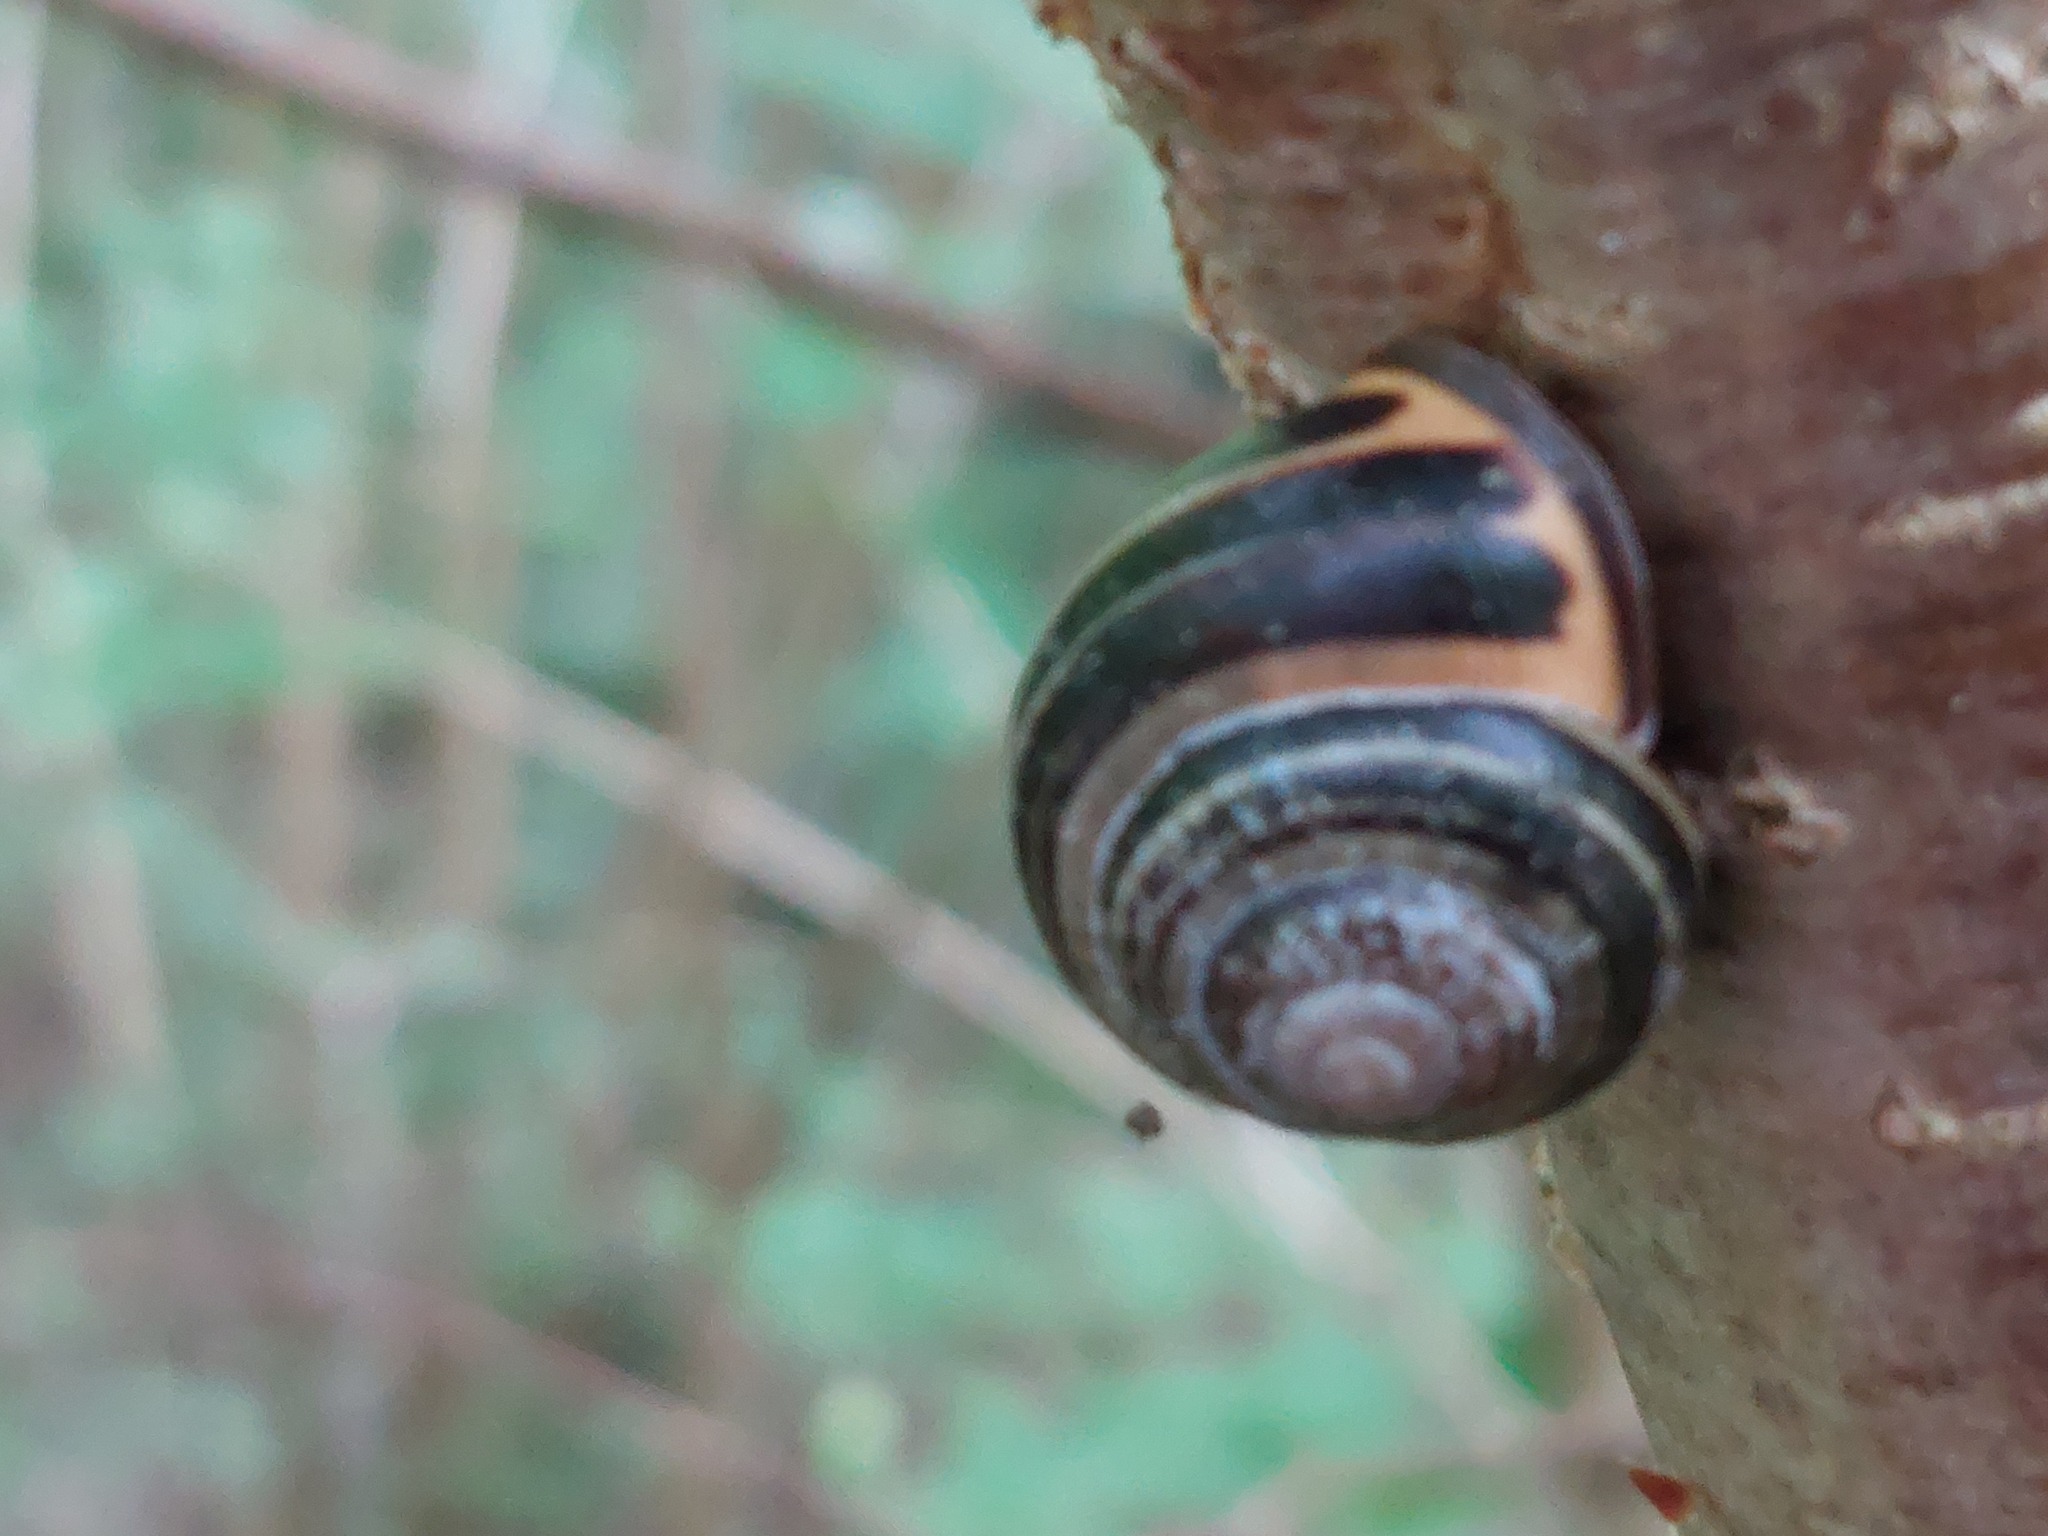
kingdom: Animalia
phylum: Mollusca
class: Gastropoda
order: Stylommatophora
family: Helicidae
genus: Cepaea
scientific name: Cepaea nemoralis
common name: Grovesnail
